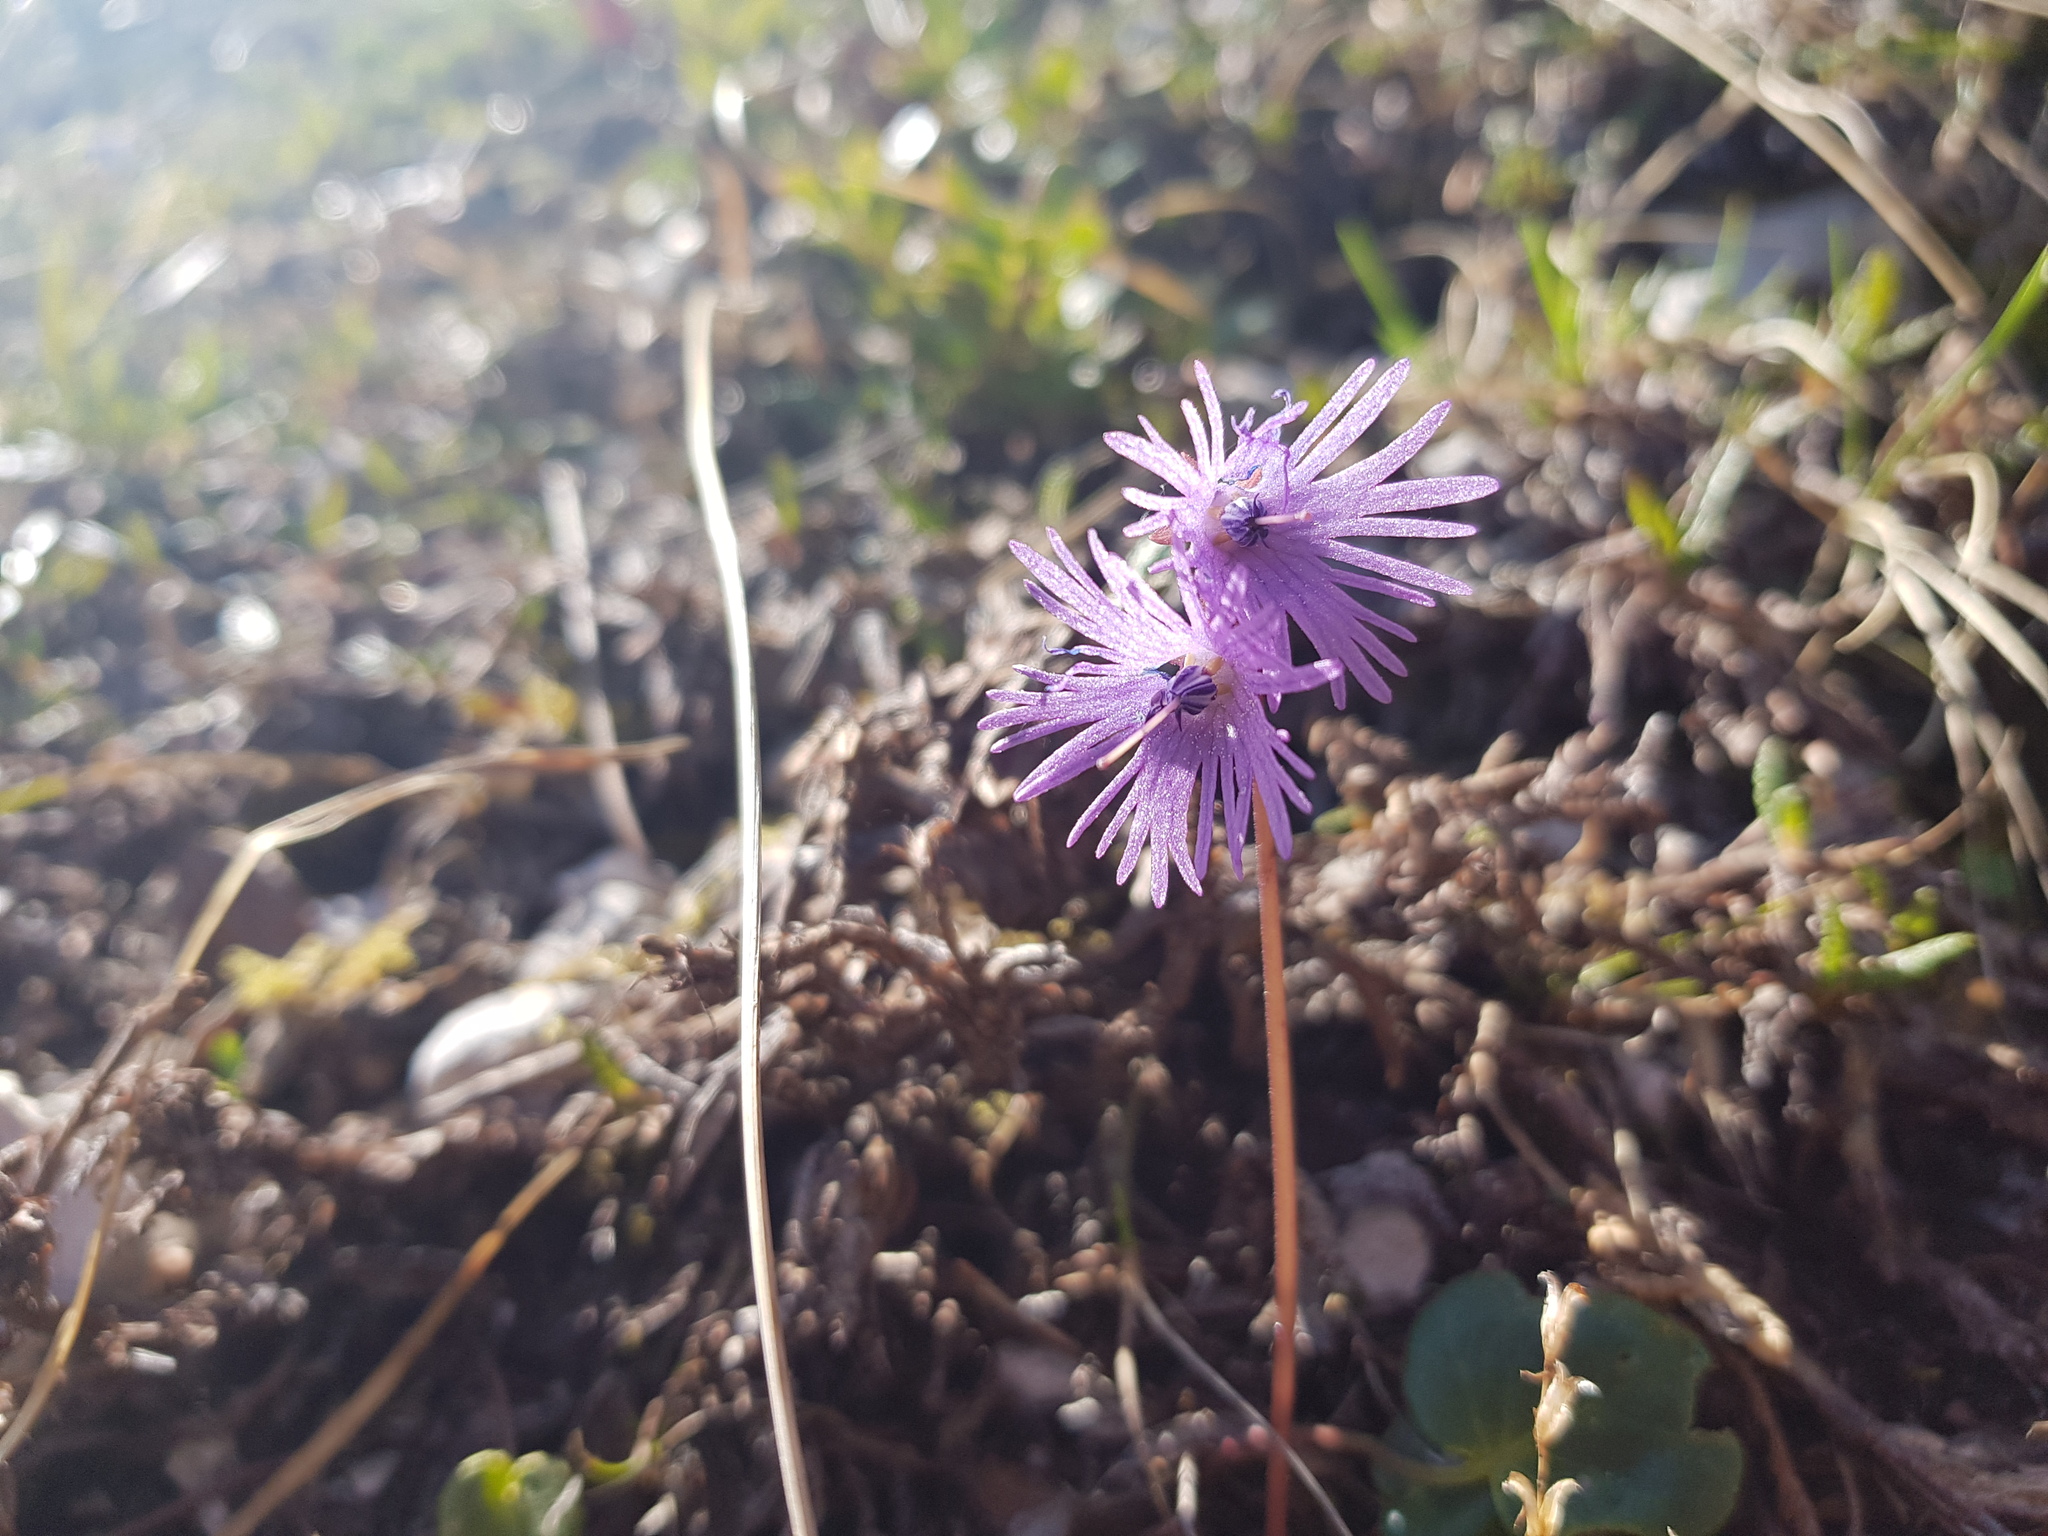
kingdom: Plantae
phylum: Tracheophyta
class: Magnoliopsida
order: Ericales
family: Primulaceae
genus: Soldanella
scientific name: Soldanella alpina
